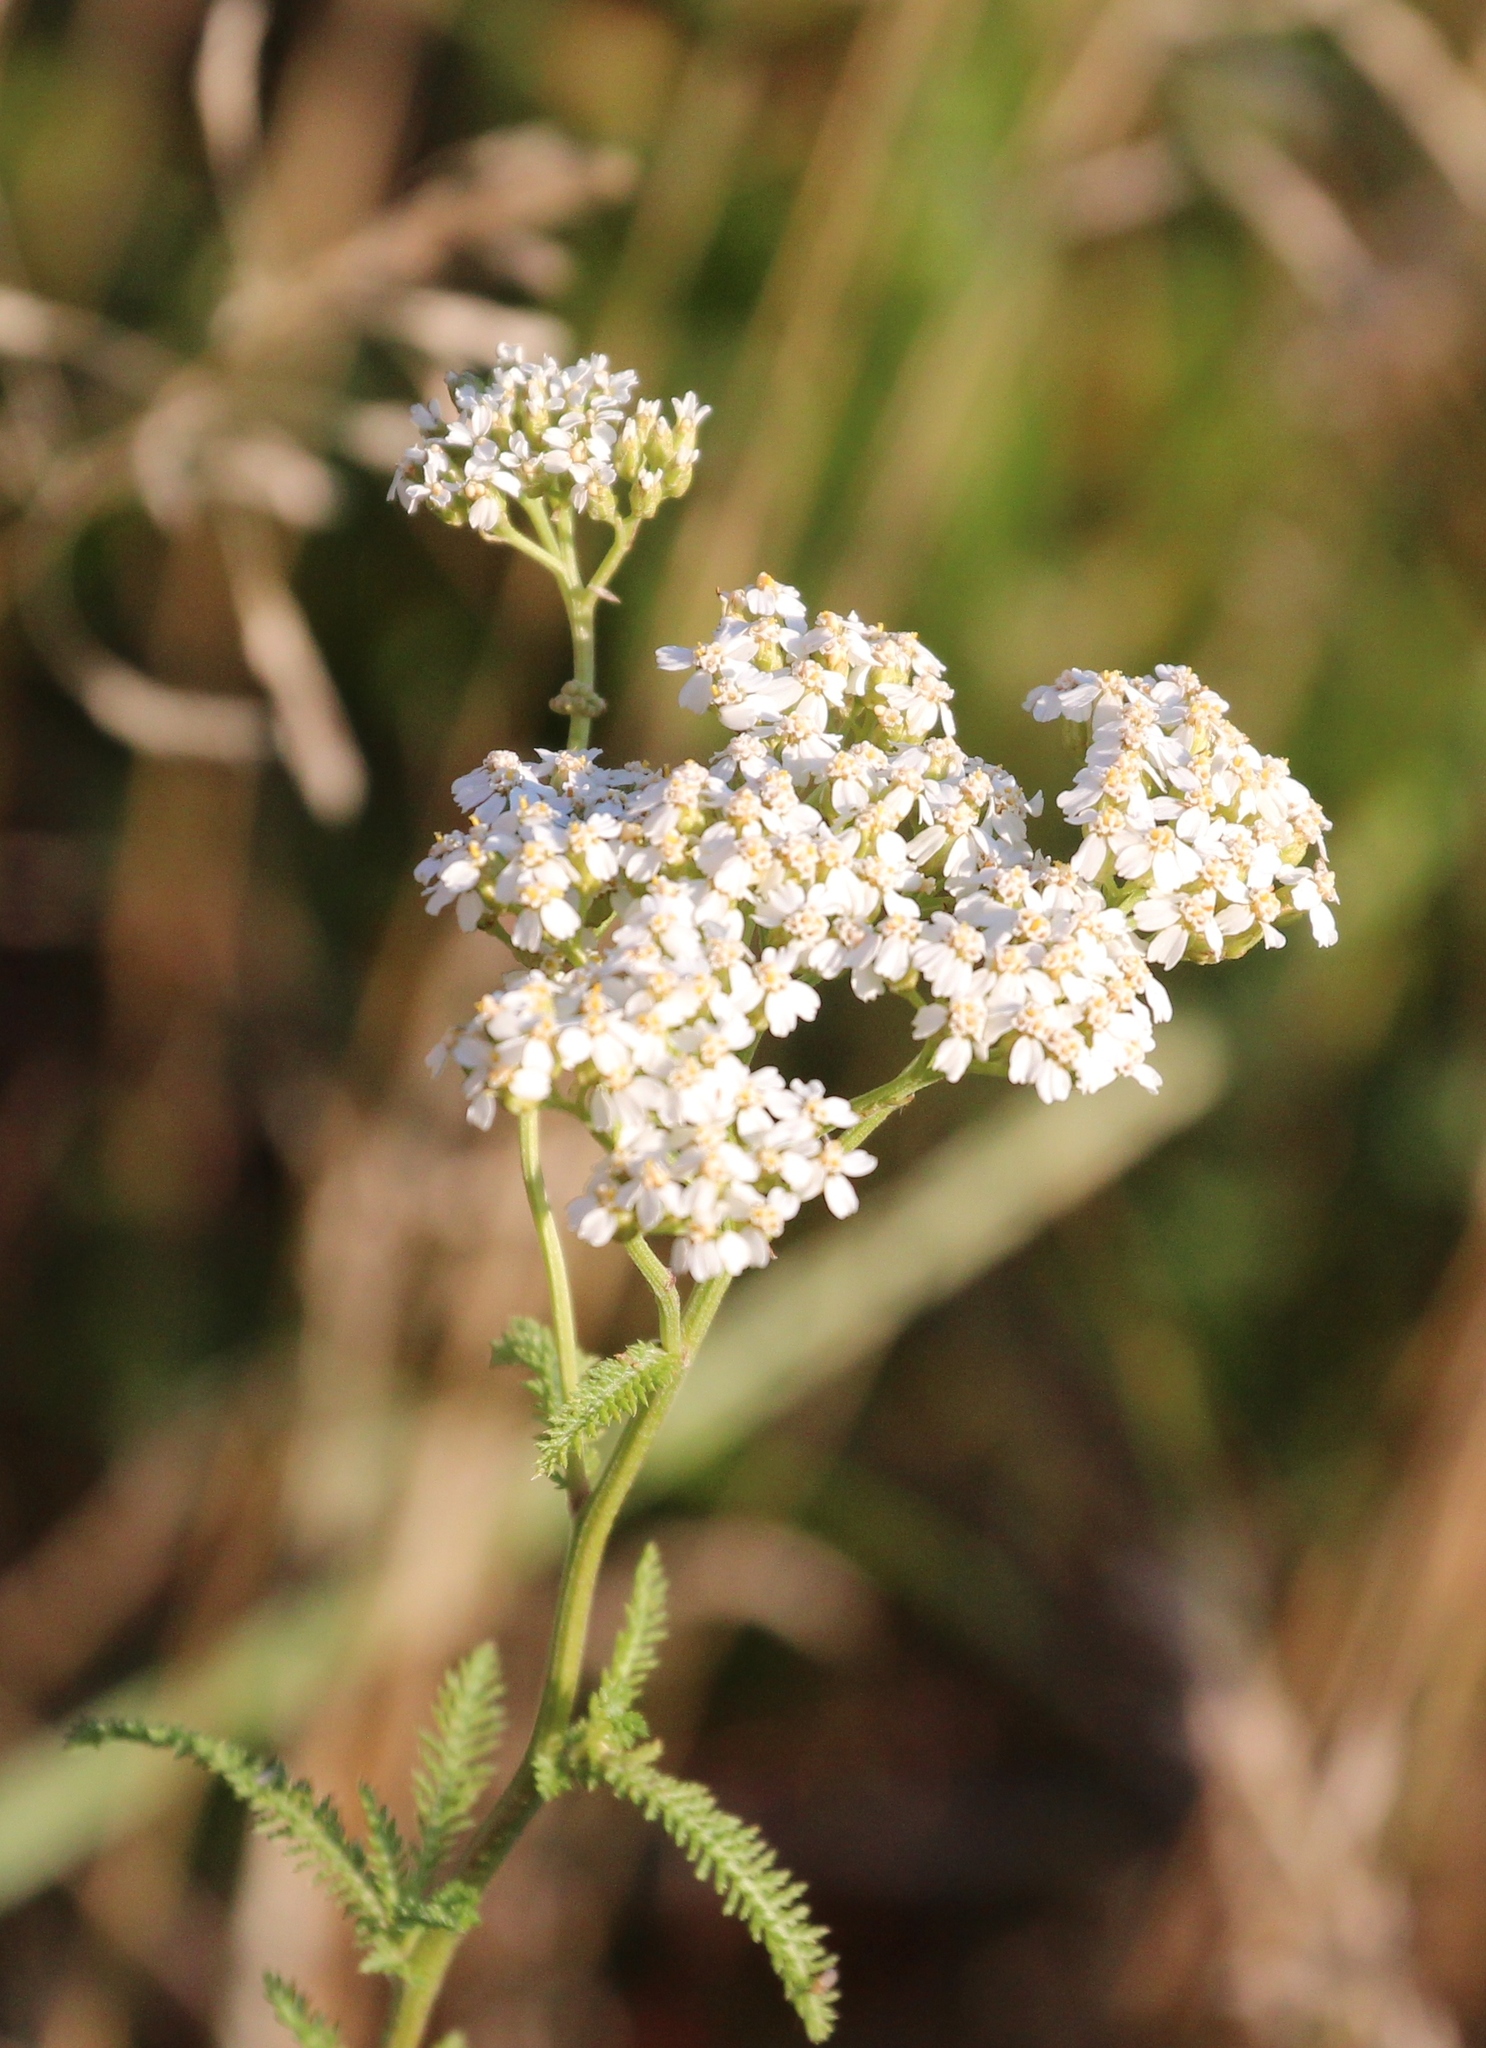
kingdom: Plantae
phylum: Tracheophyta
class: Magnoliopsida
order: Asterales
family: Asteraceae
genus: Achillea
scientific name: Achillea millefolium
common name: Yarrow
